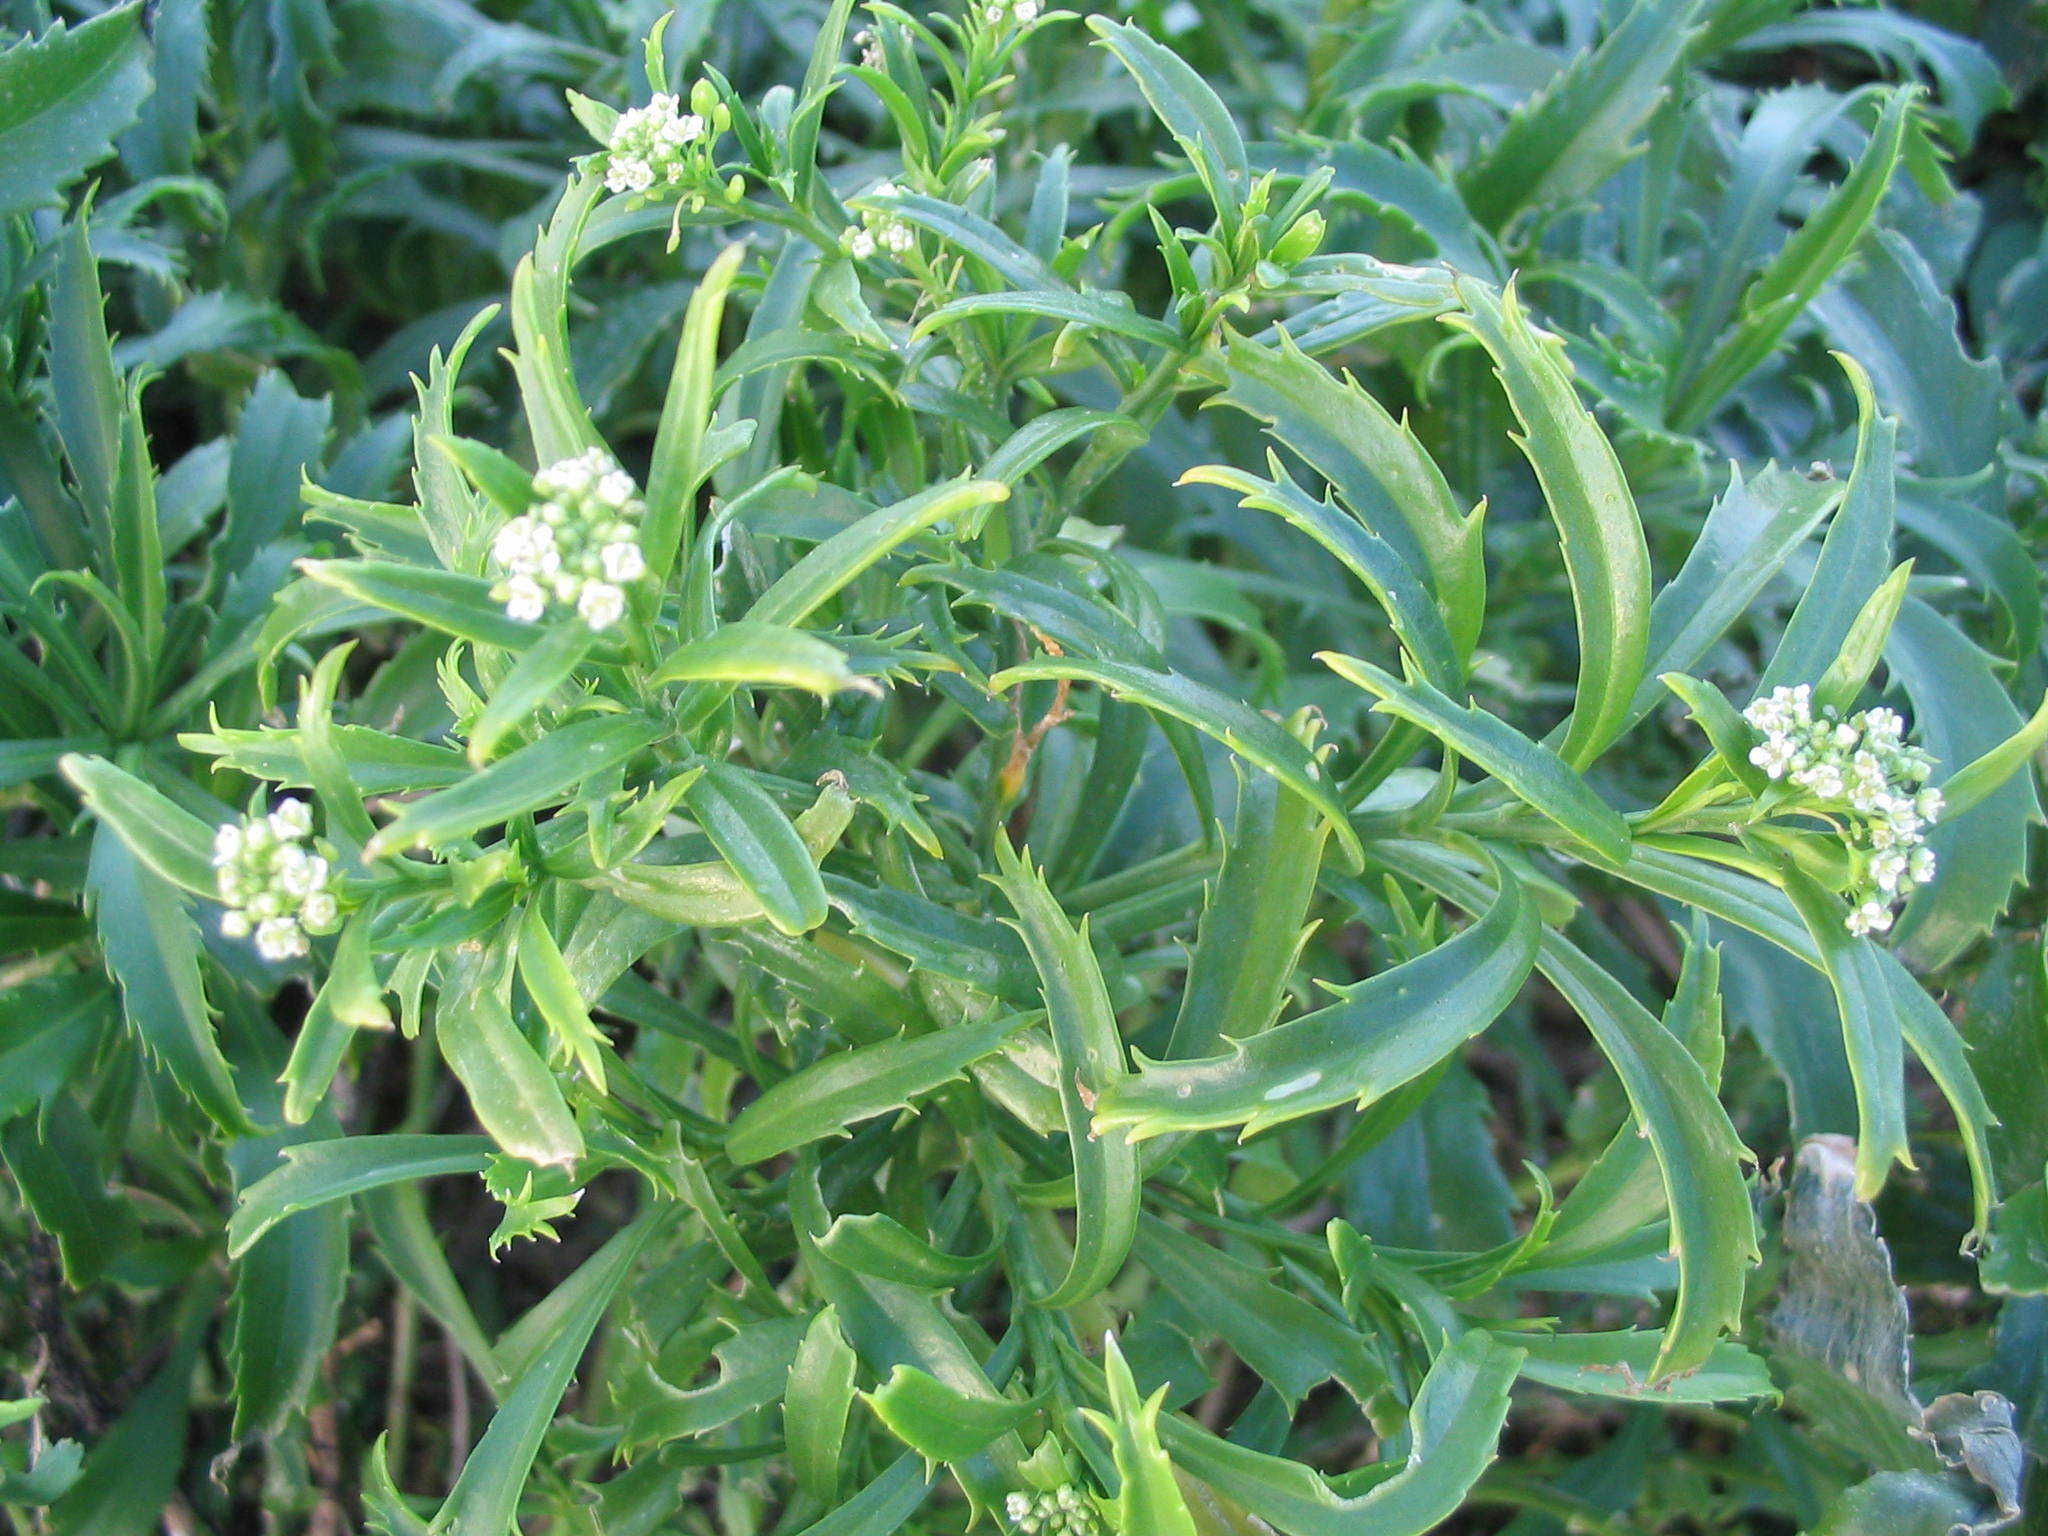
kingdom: Plantae
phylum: Tracheophyta
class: Magnoliopsida
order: Brassicales
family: Brassicaceae
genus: Lepidium
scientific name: Lepidium castellanum
